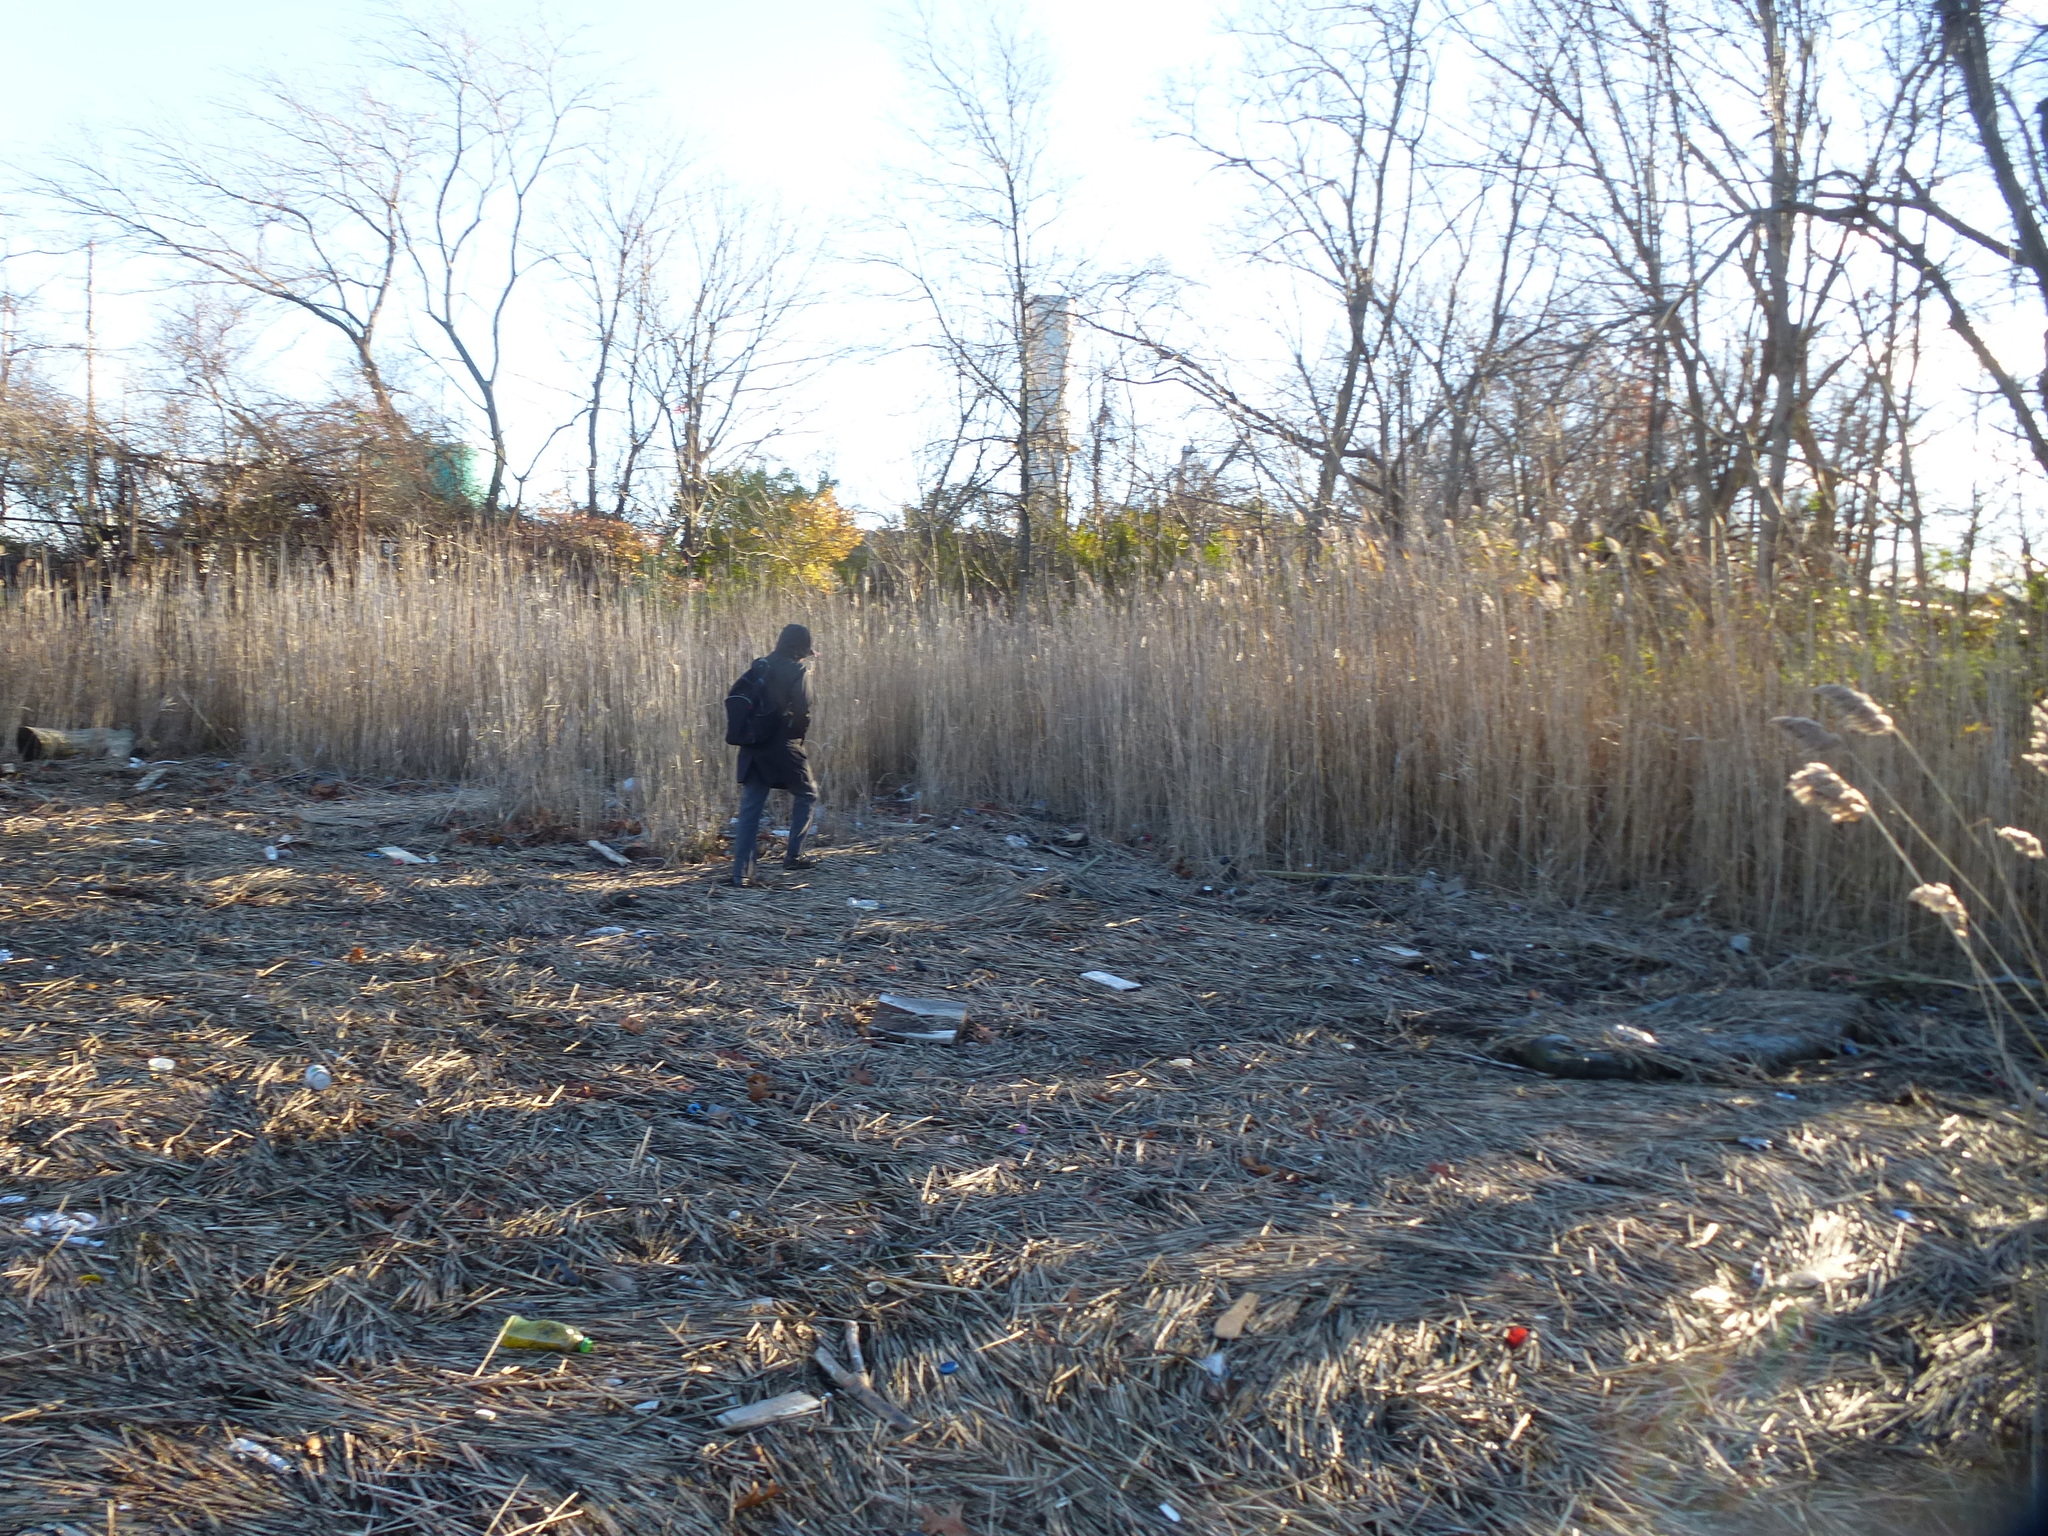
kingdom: Plantae
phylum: Tracheophyta
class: Liliopsida
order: Poales
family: Poaceae
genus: Phragmites
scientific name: Phragmites australis
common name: Common reed
